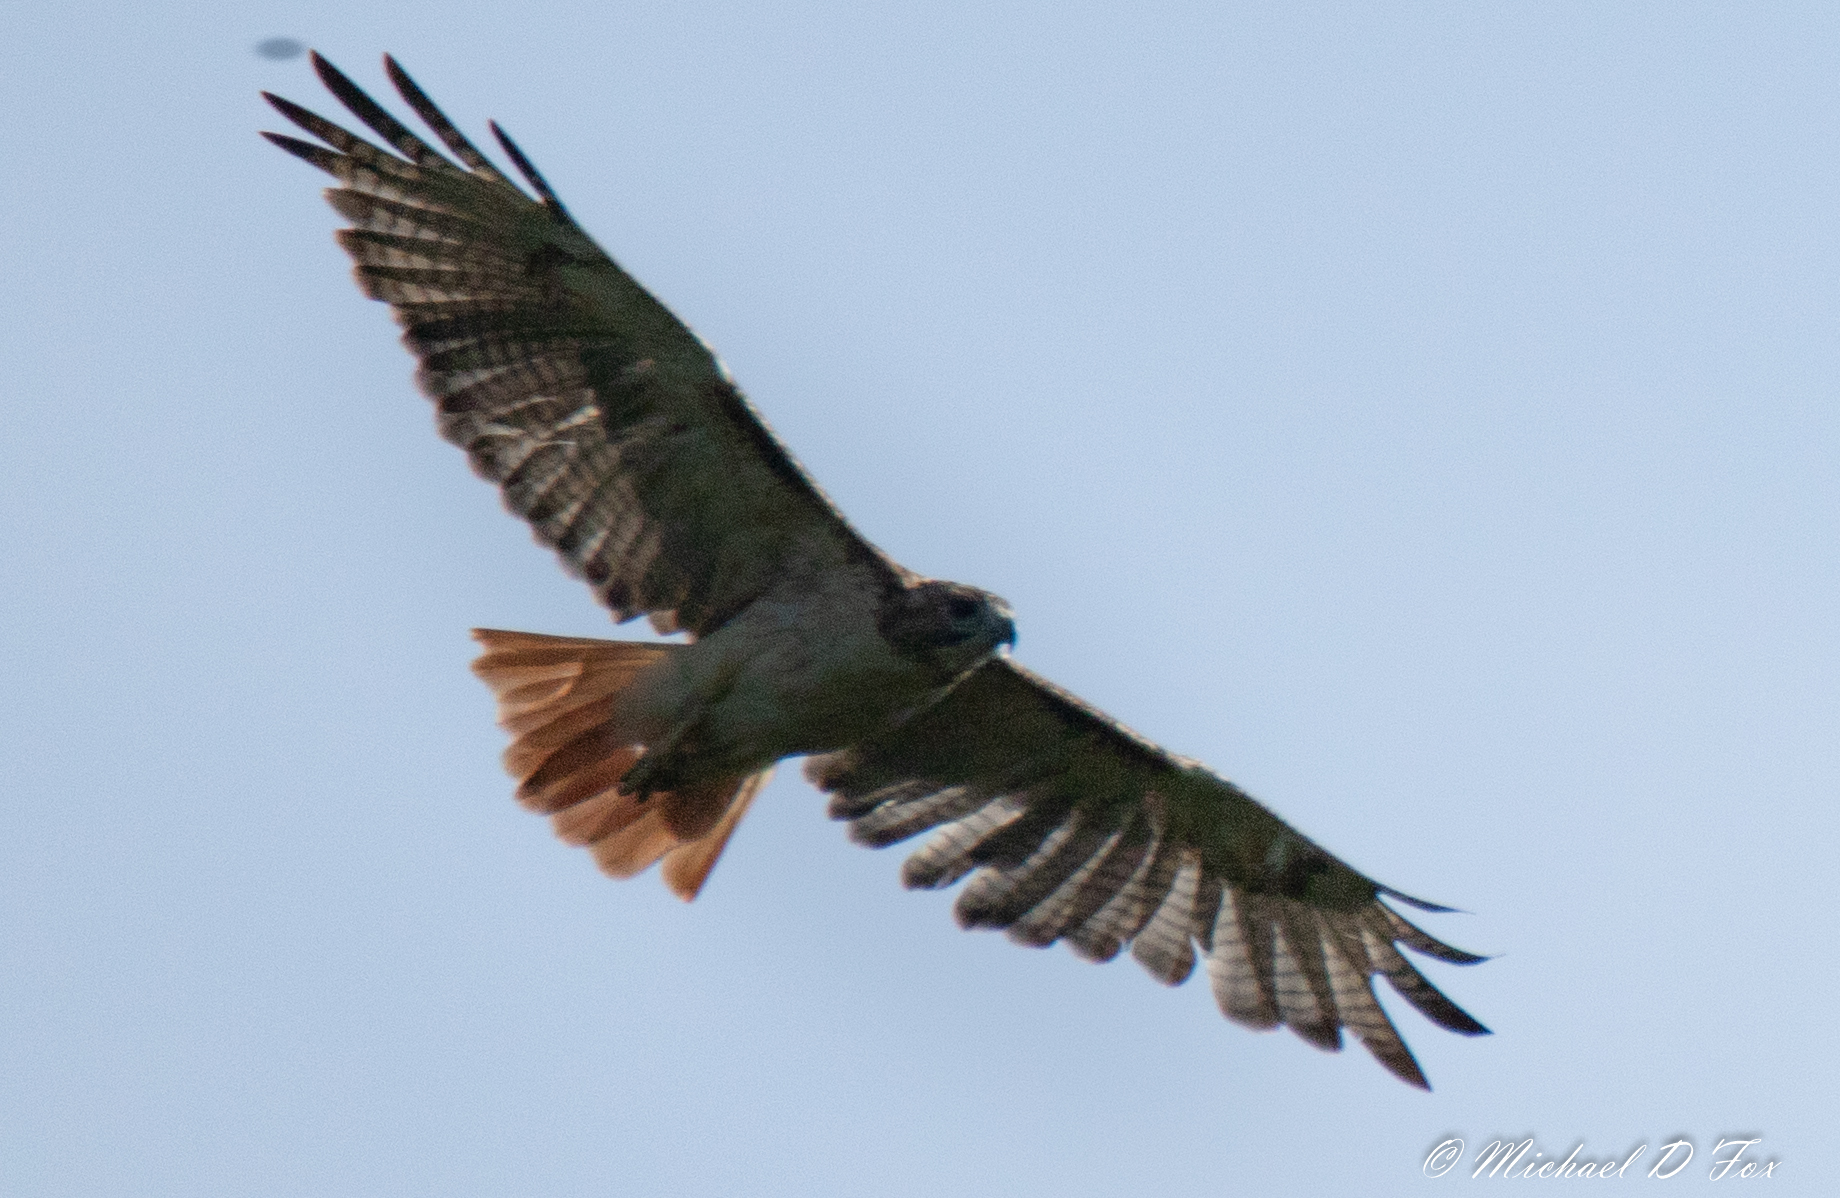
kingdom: Animalia
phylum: Chordata
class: Aves
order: Accipitriformes
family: Accipitridae
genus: Buteo
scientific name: Buteo jamaicensis
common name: Red-tailed hawk
